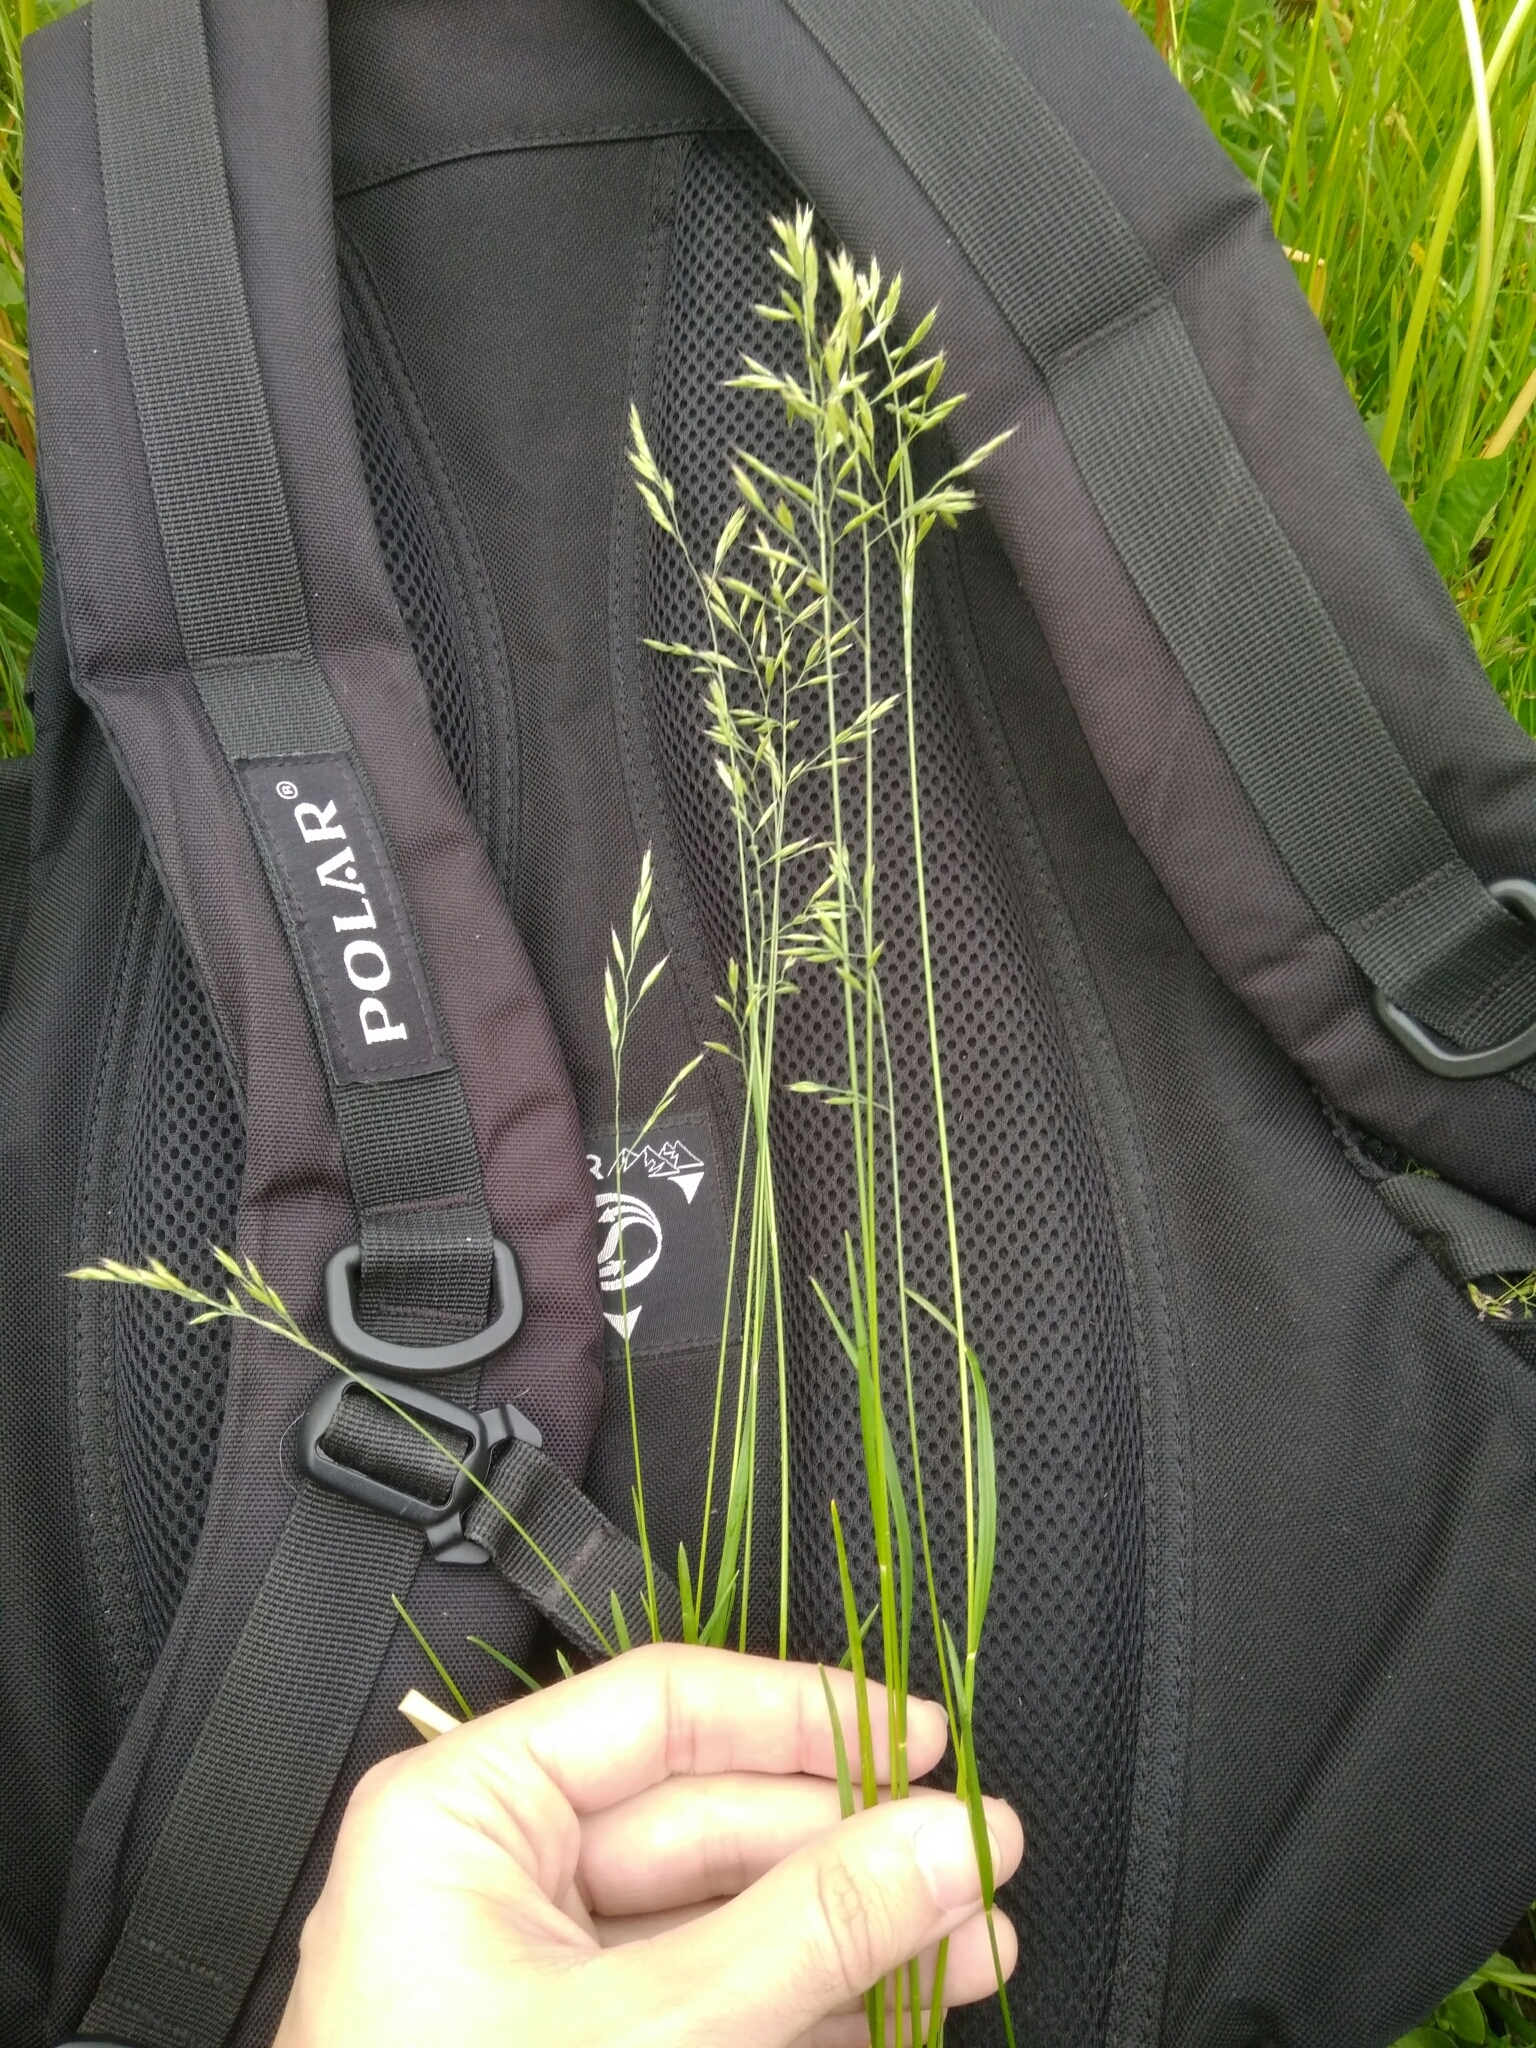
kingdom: Plantae
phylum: Tracheophyta
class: Liliopsida
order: Poales
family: Poaceae
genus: Festuca
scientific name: Festuca rubra
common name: Red fescue
